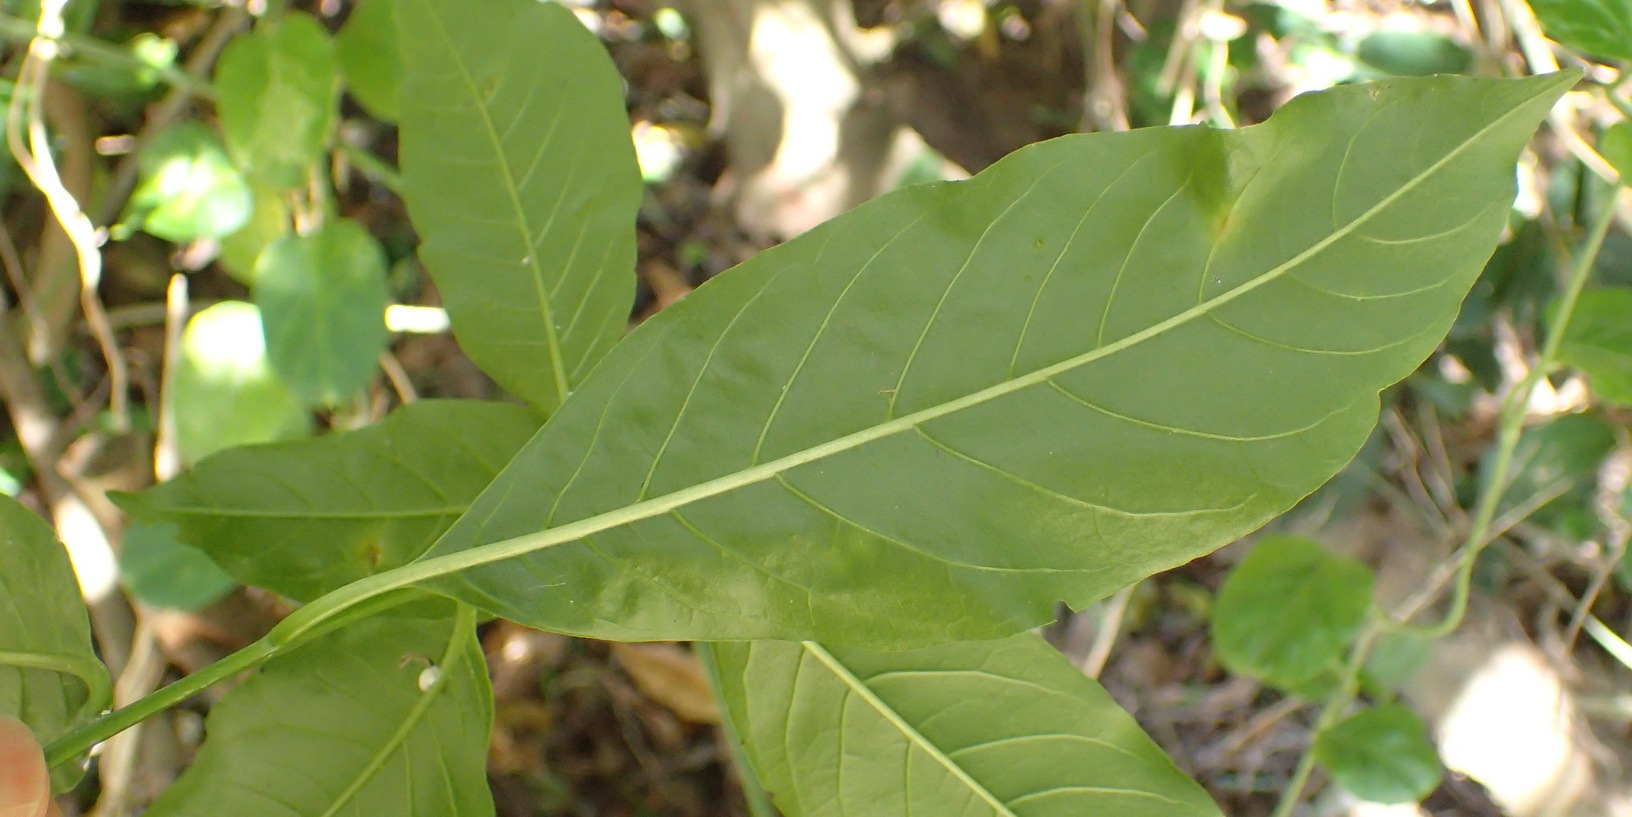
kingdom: Plantae
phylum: Tracheophyta
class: Magnoliopsida
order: Solanales
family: Solanaceae
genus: Cestrum
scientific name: Cestrum laevigatum
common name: Inkberry
